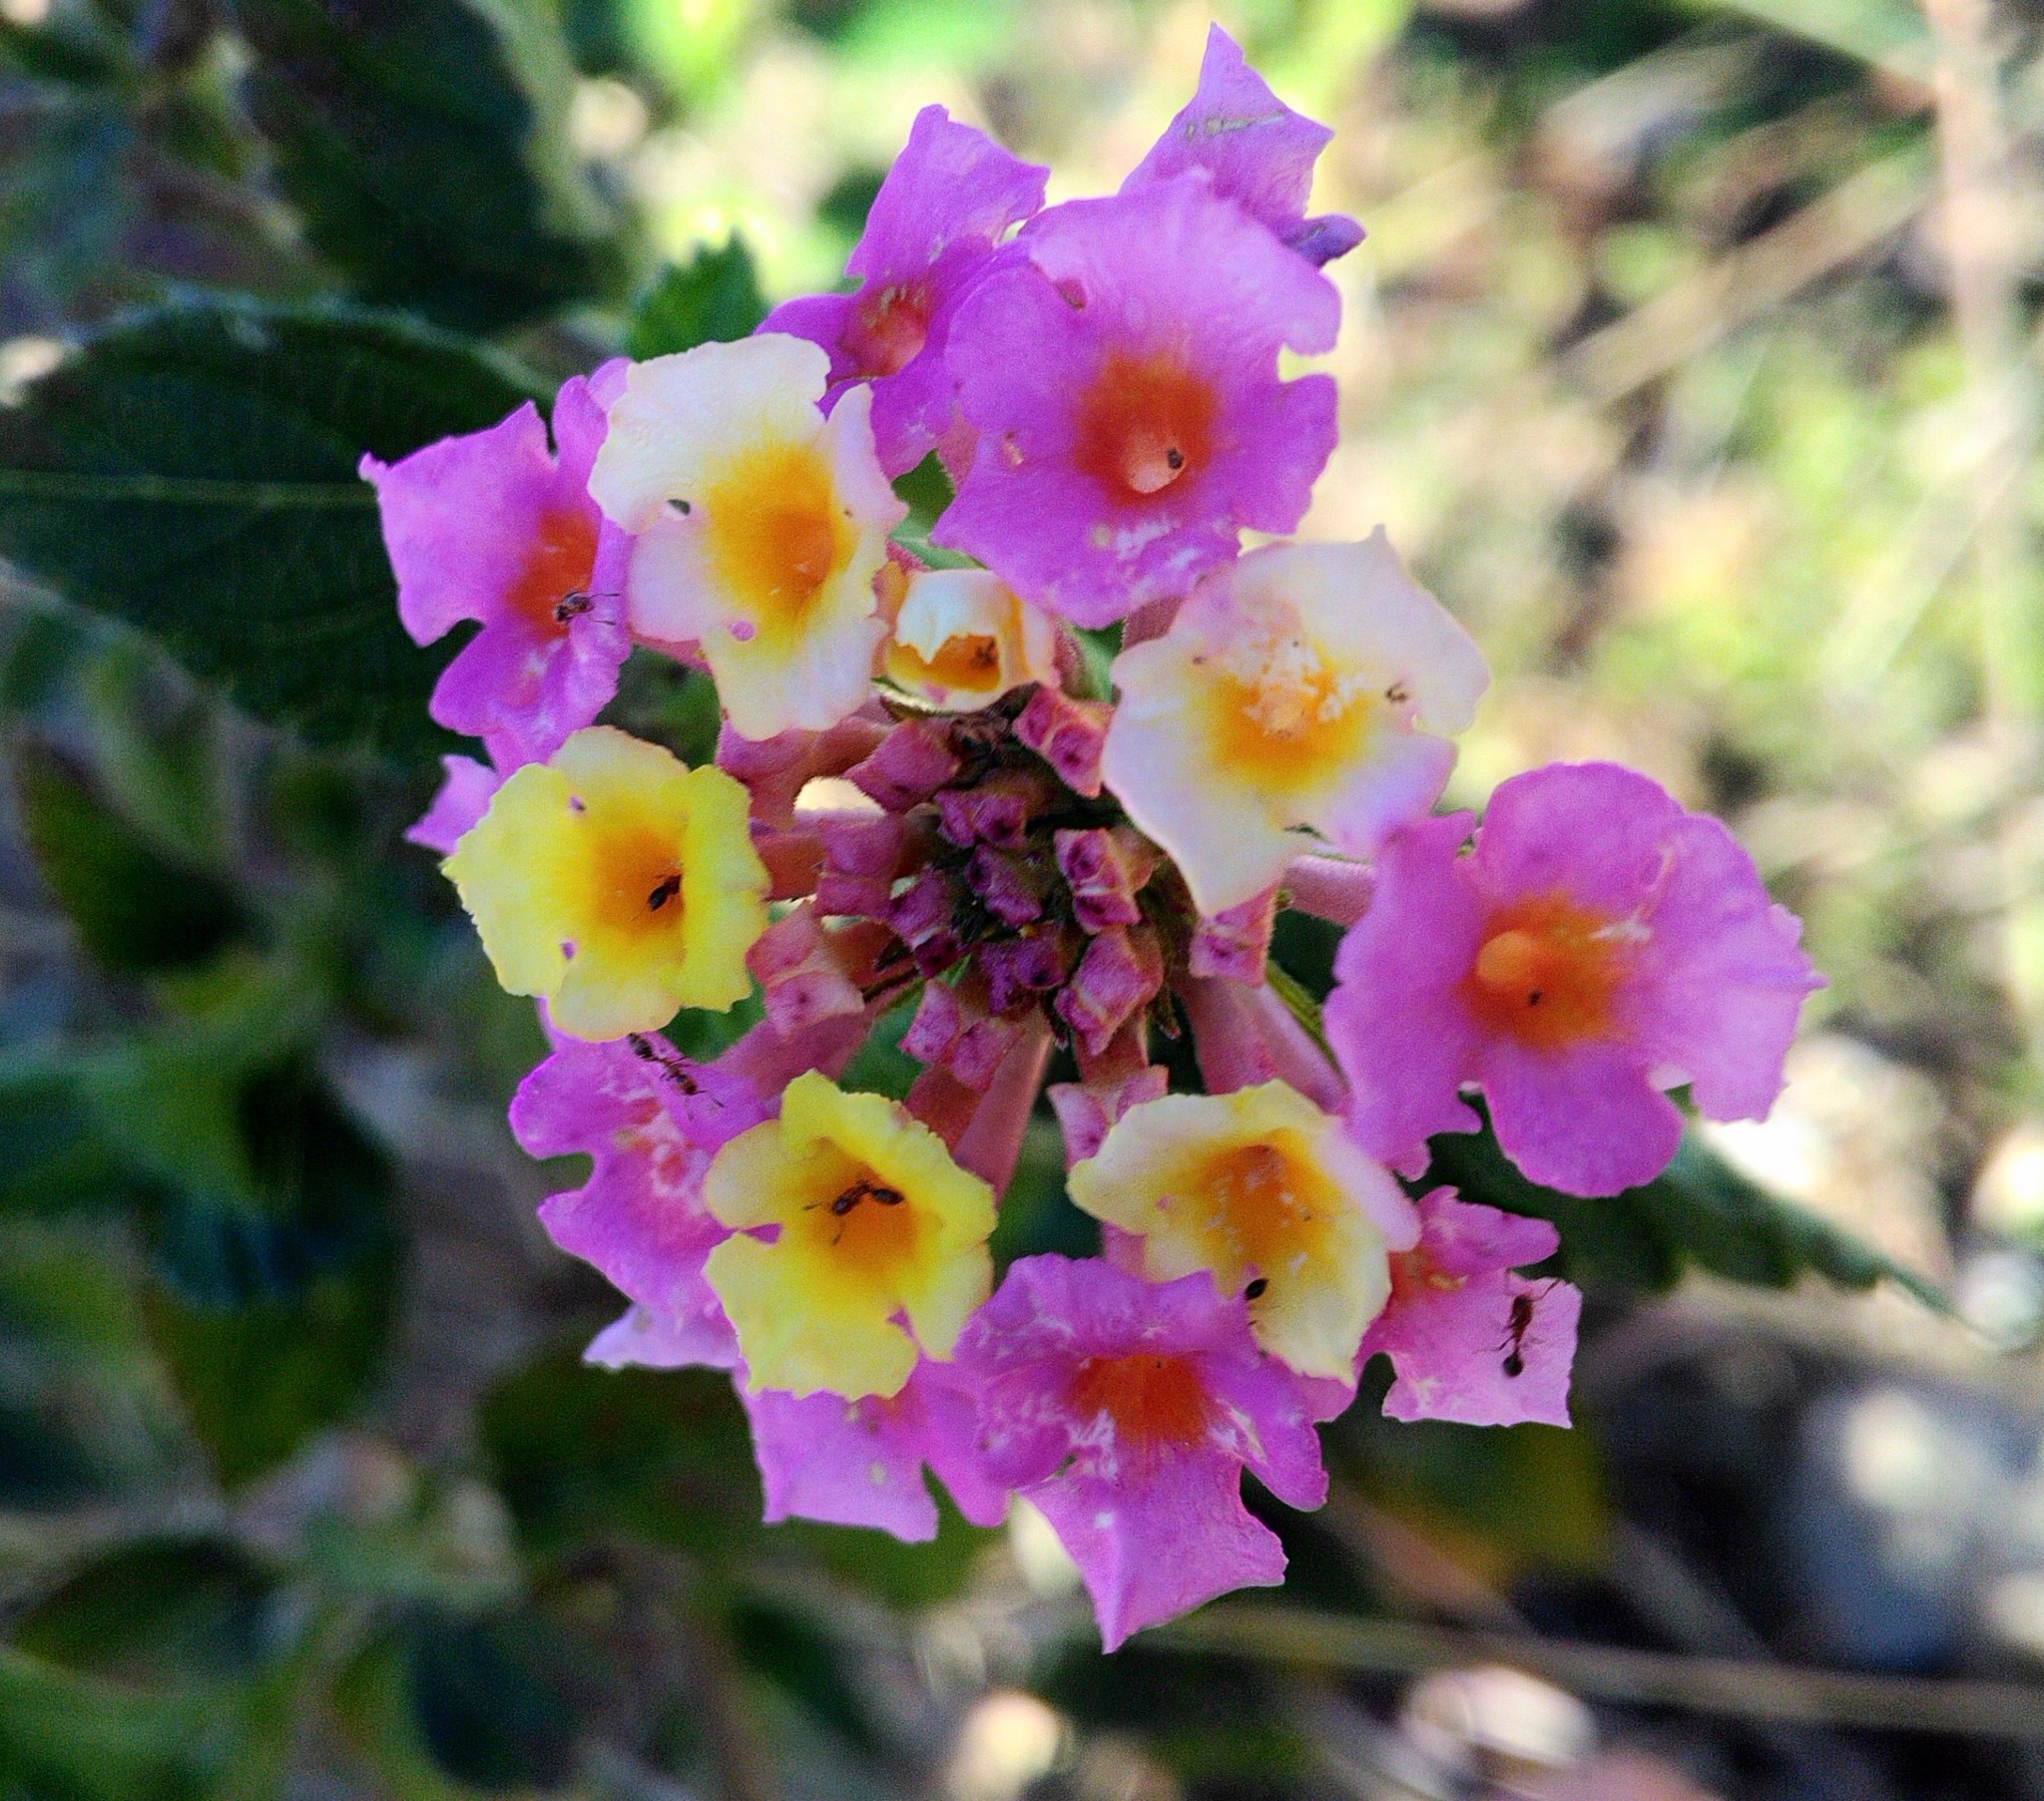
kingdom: Plantae
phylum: Tracheophyta
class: Magnoliopsida
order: Lamiales
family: Verbenaceae
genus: Lantana
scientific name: Lantana camara
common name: Lantana
